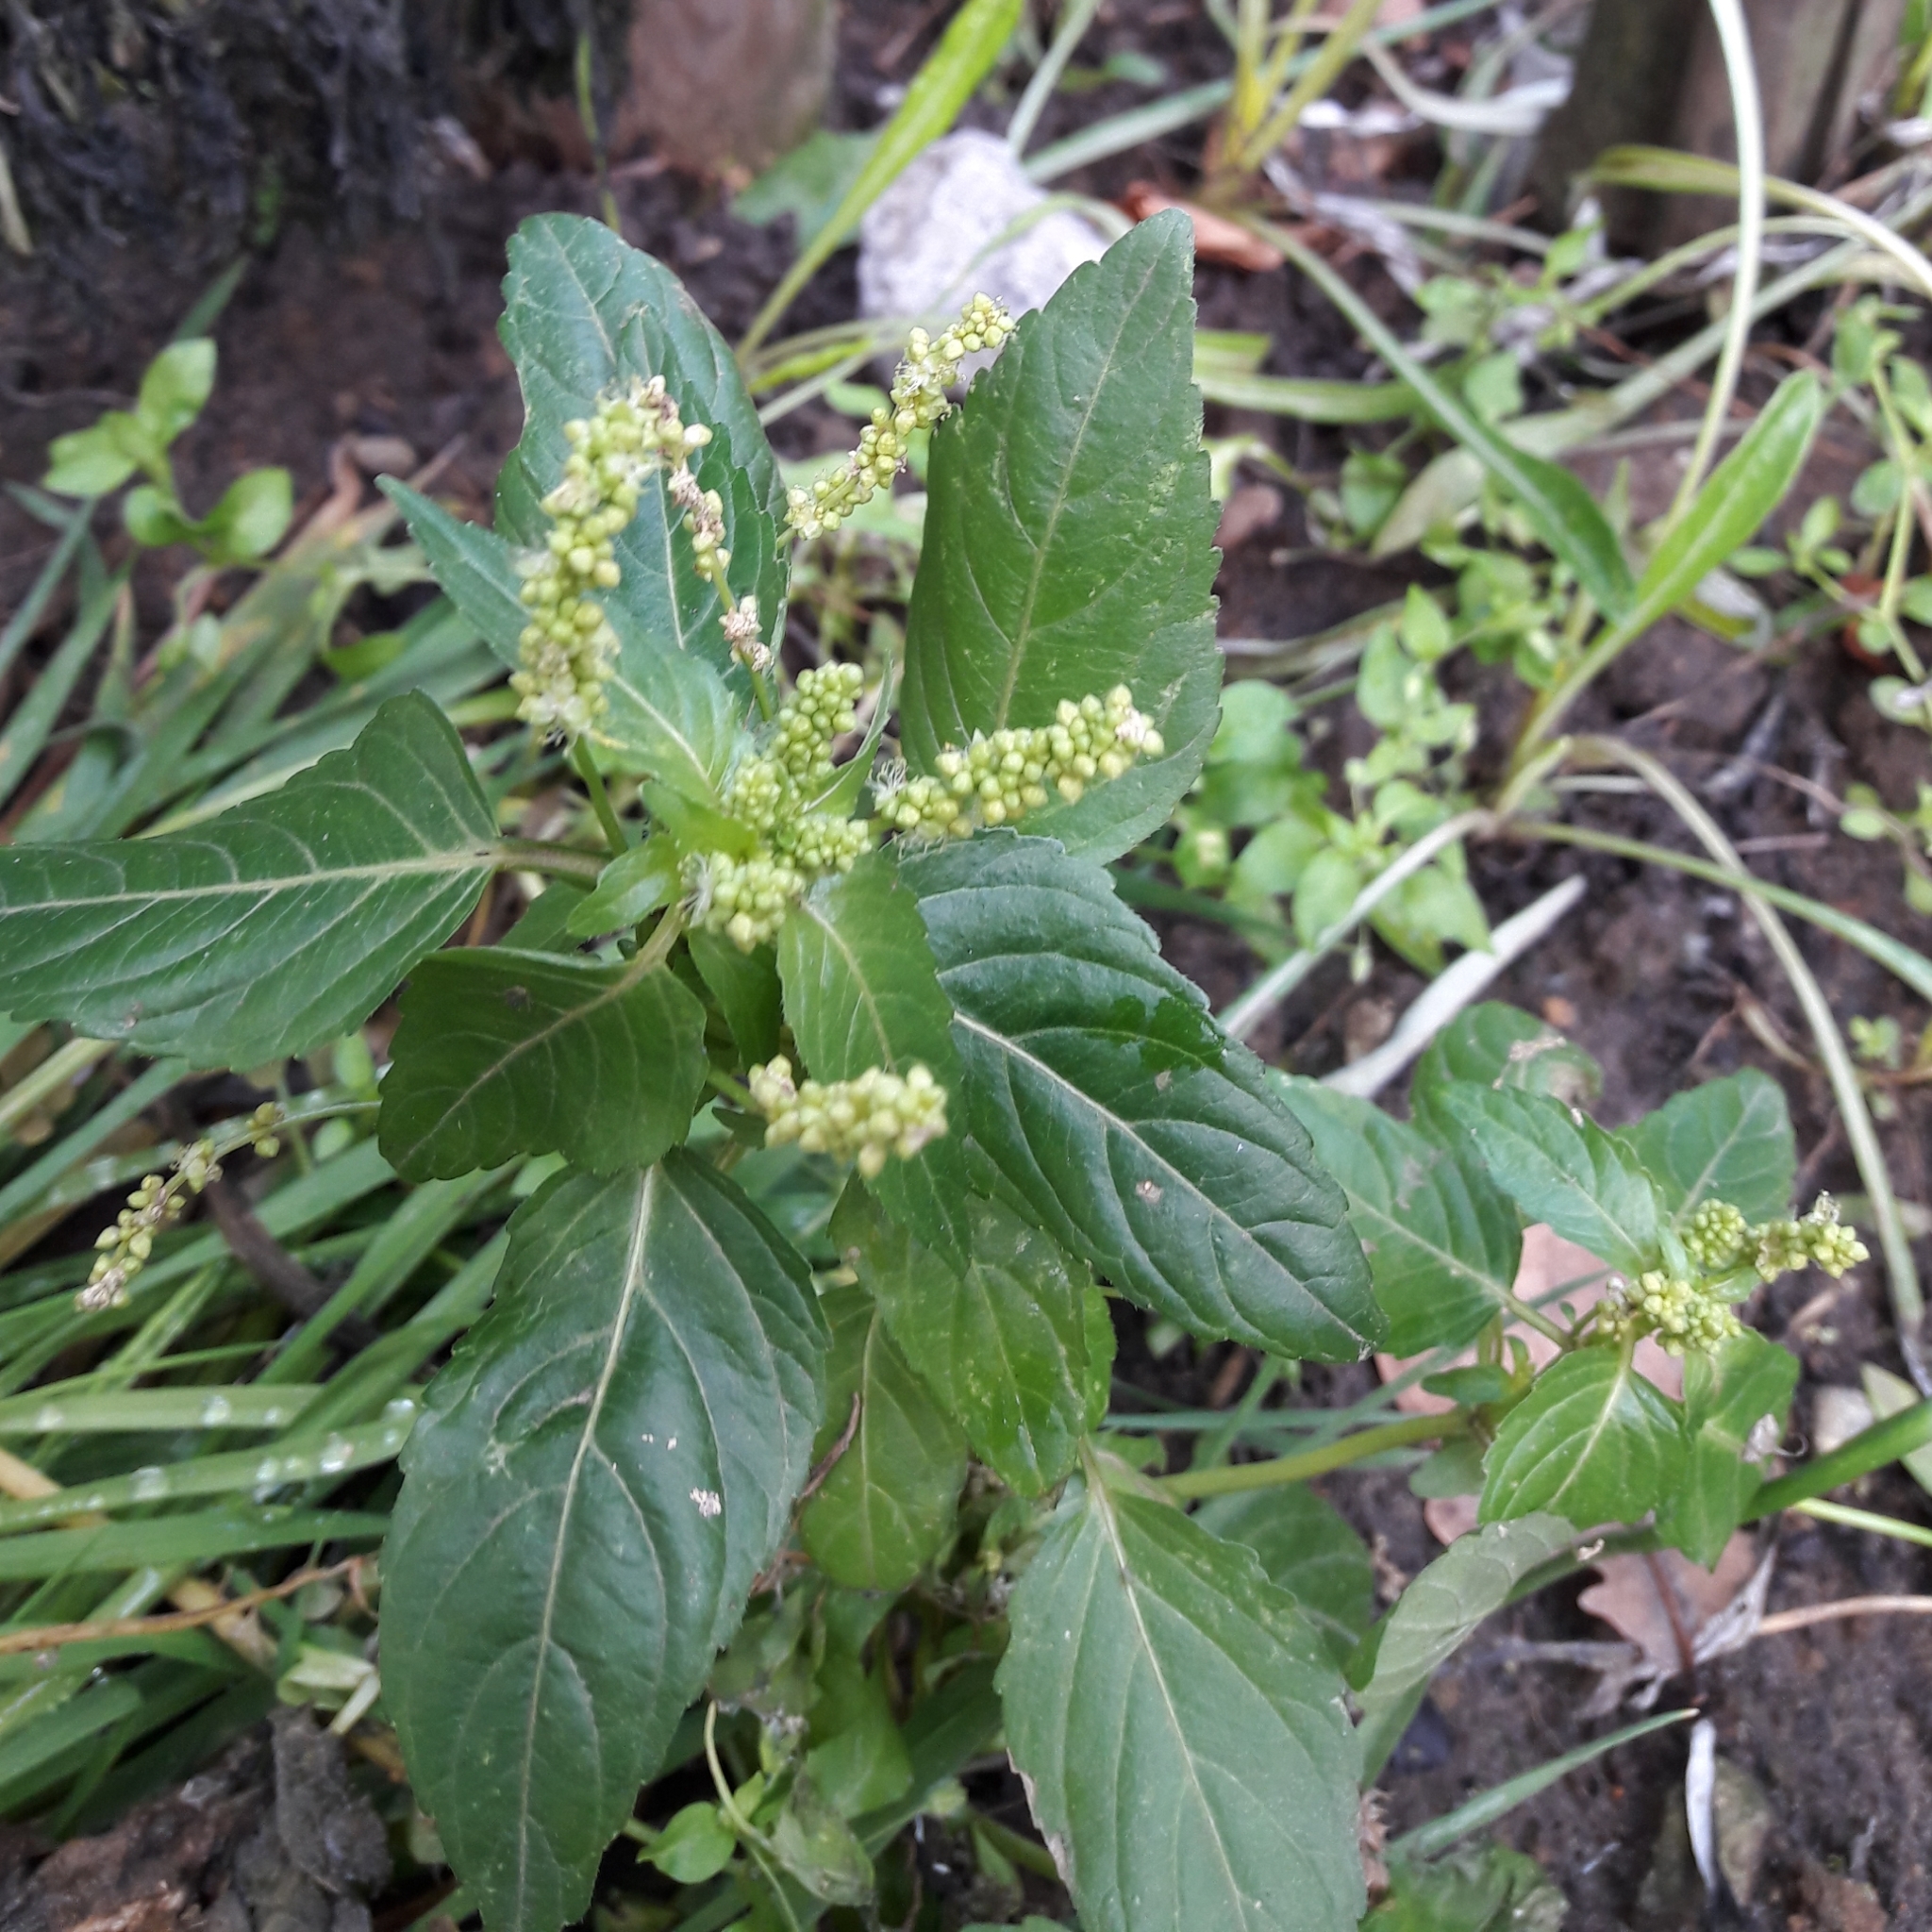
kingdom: Plantae
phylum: Tracheophyta
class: Magnoliopsida
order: Malpighiales
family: Euphorbiaceae
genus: Mercurialis
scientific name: Mercurialis annua
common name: Annual mercury
